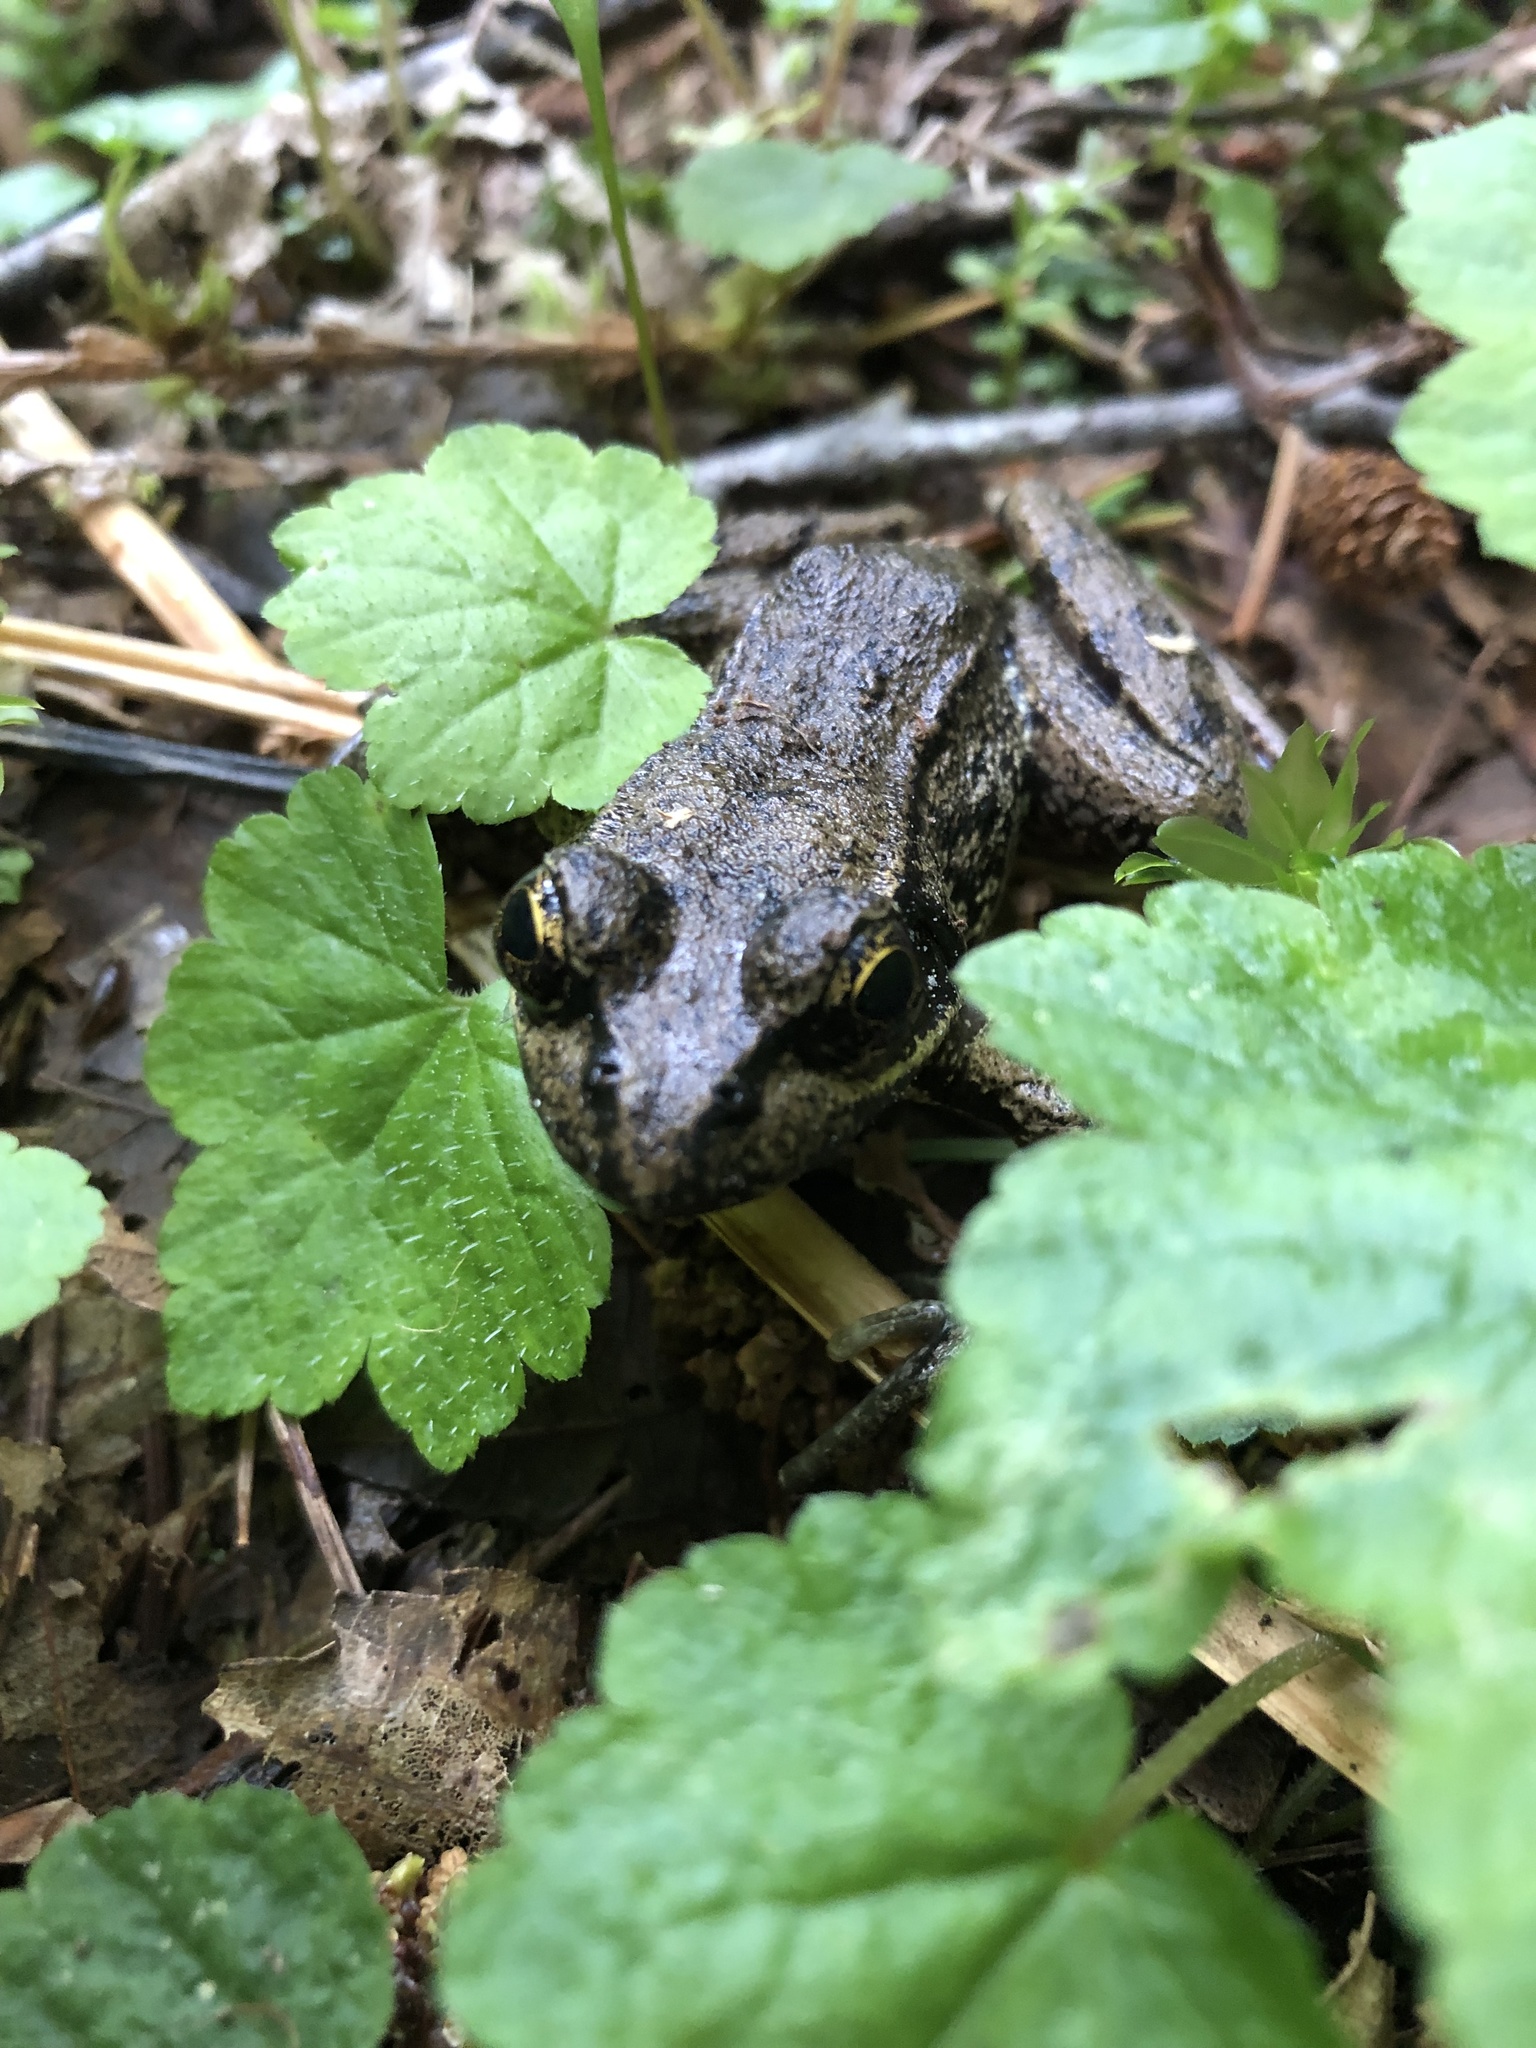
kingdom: Animalia
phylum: Chordata
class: Amphibia
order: Anura
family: Ranidae
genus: Rana
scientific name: Rana aurora
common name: Red-legged frog
